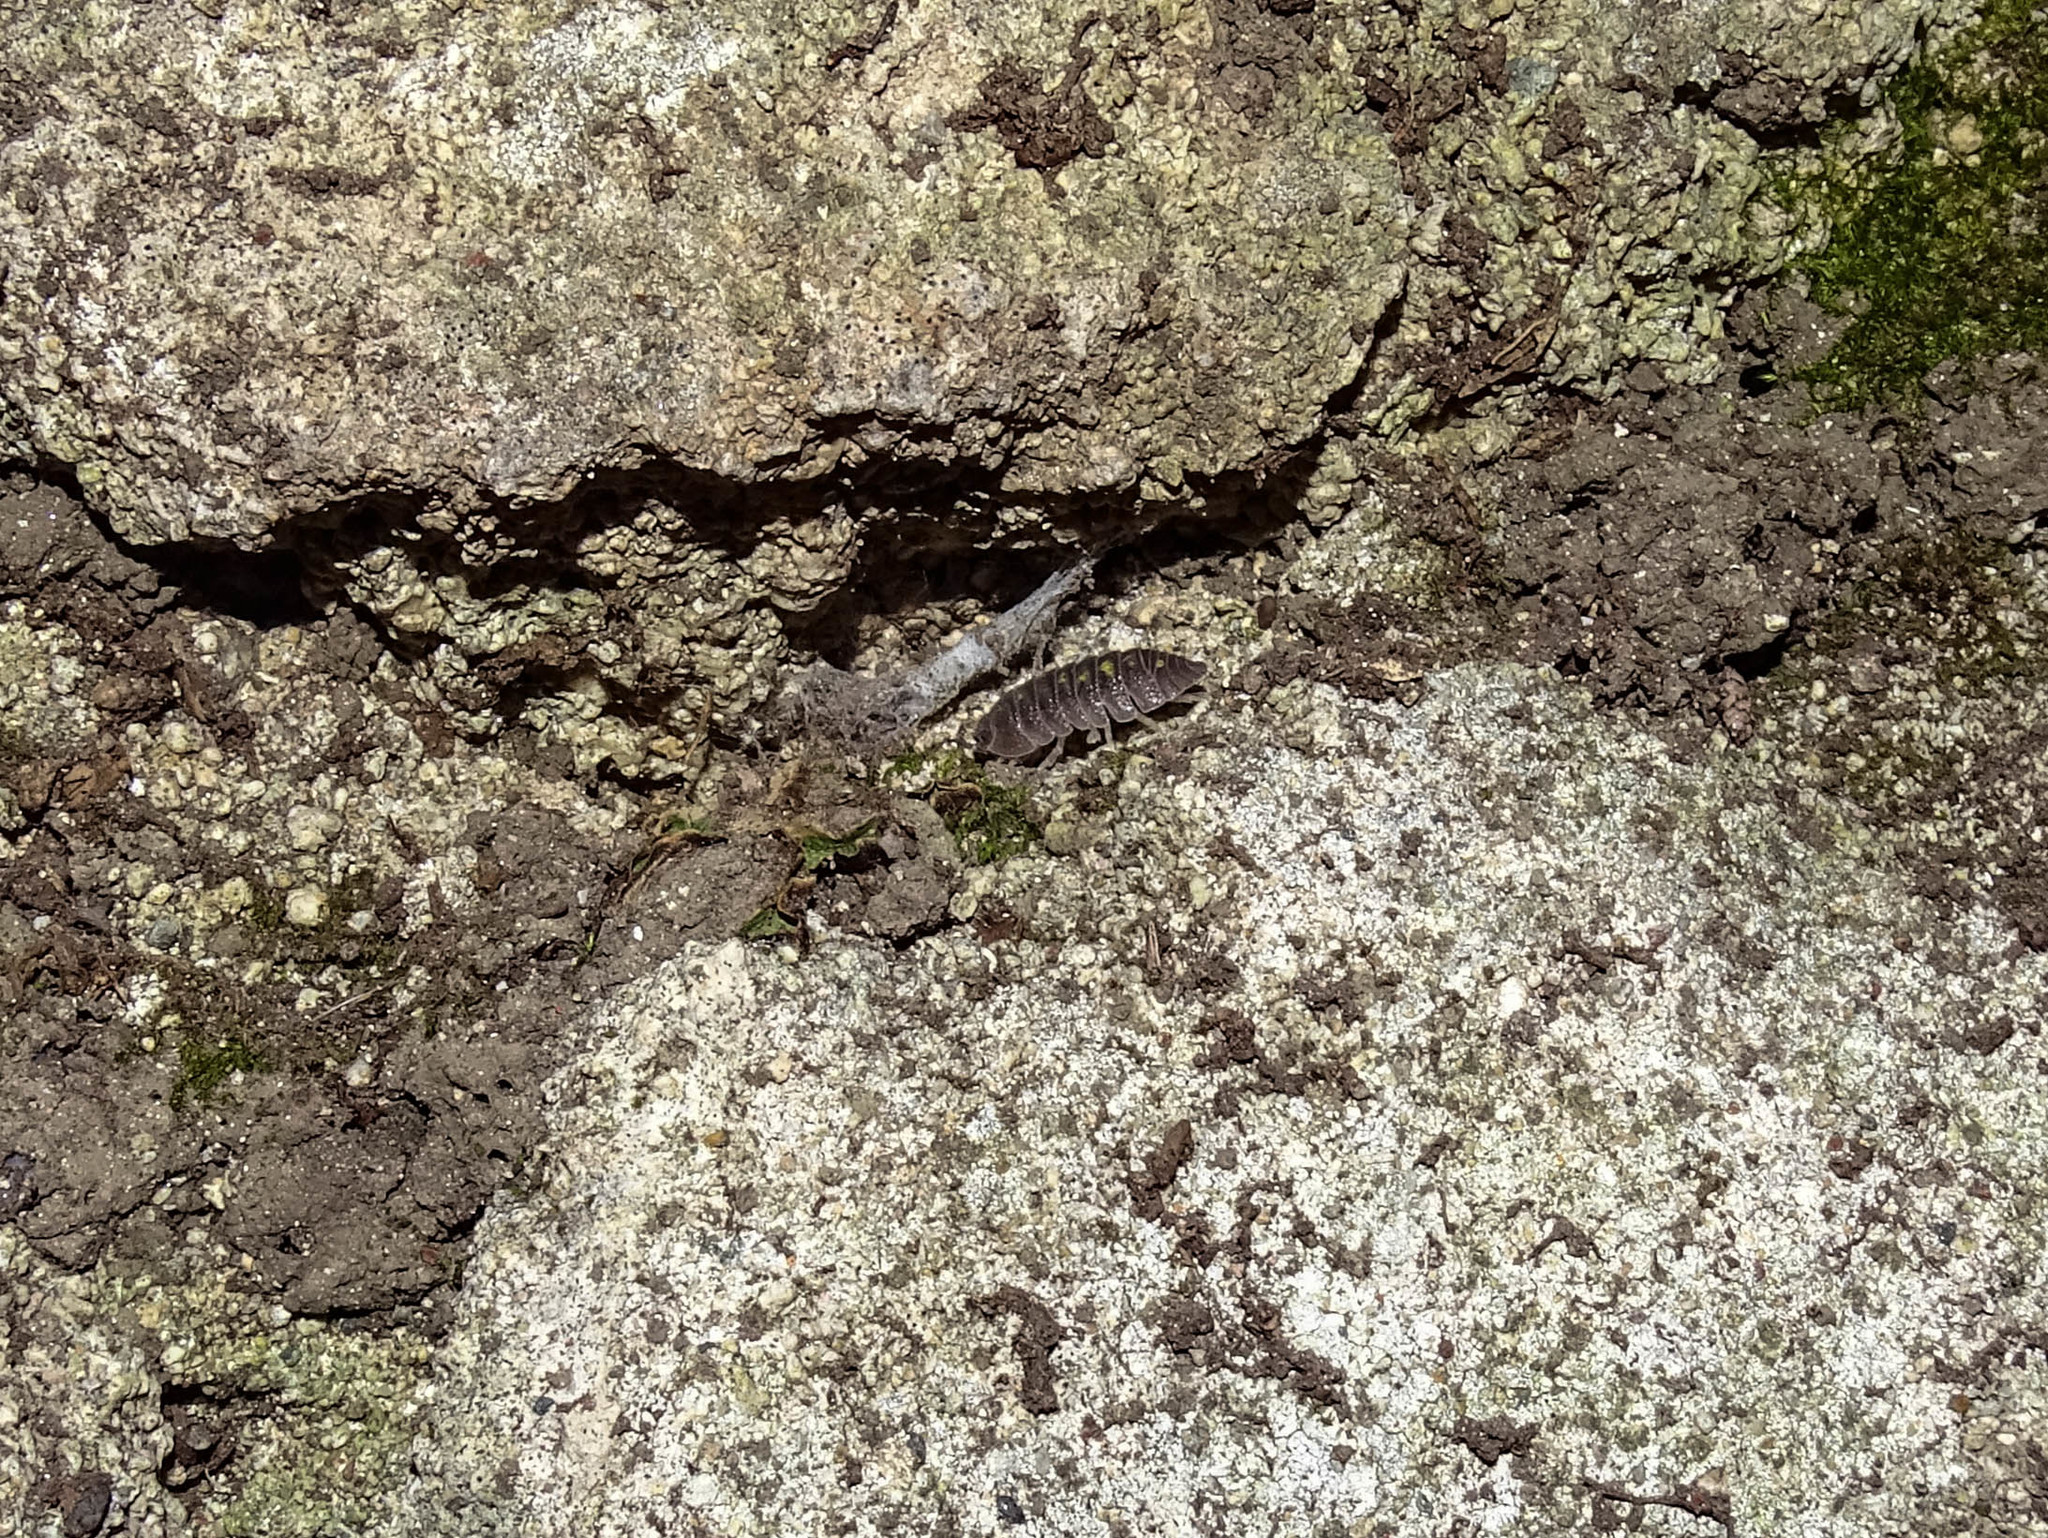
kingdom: Animalia
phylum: Arthropoda
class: Malacostraca
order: Isopoda
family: Armadillidiidae
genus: Armadillidium
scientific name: Armadillidium granulatum
